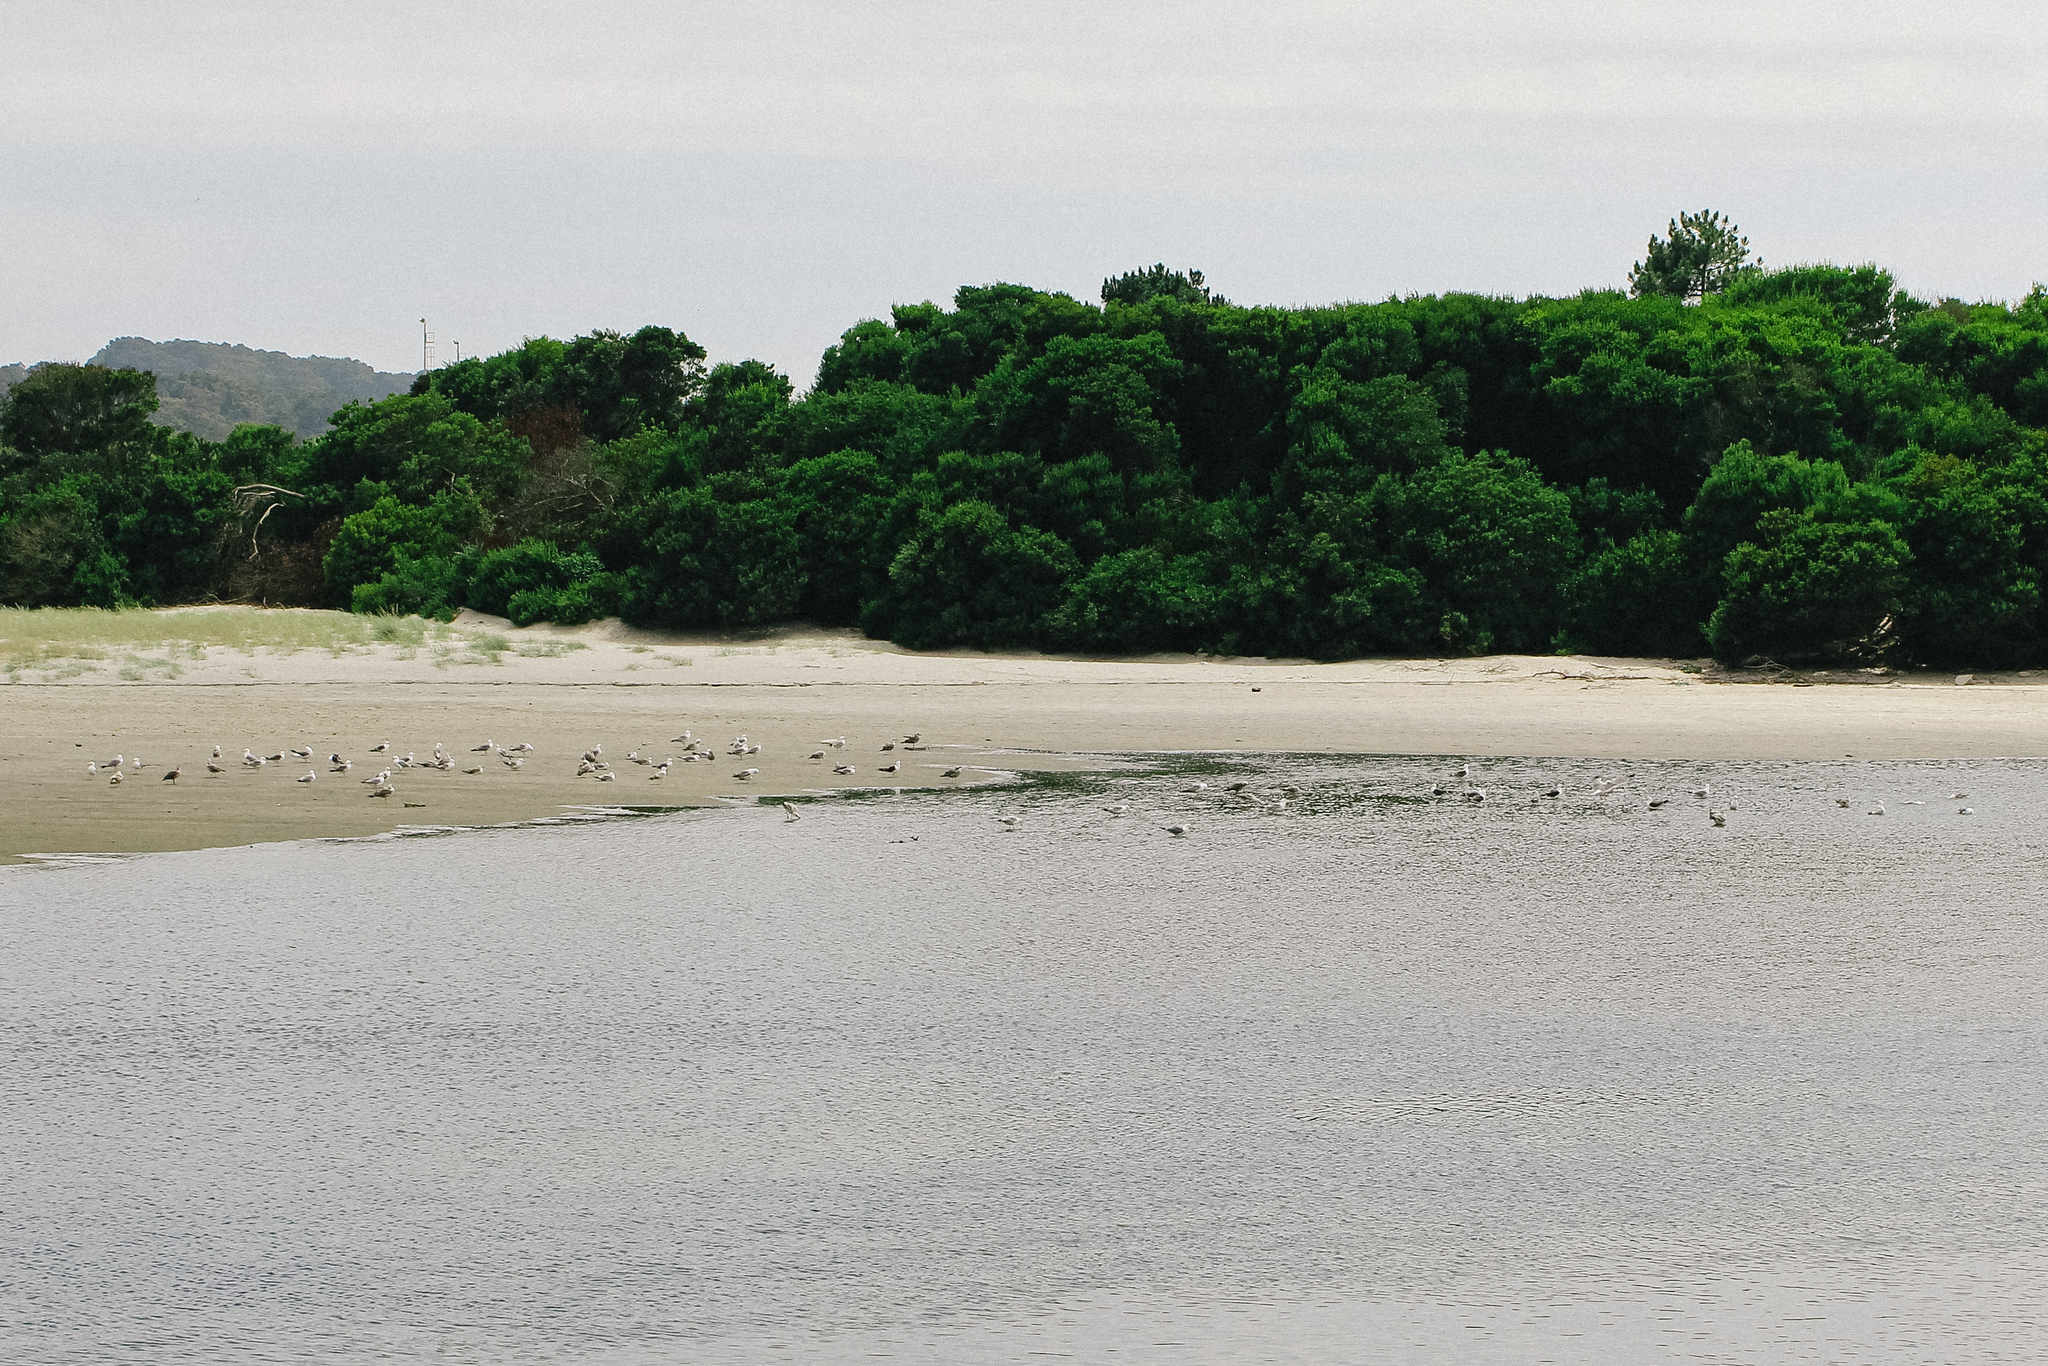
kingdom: Animalia
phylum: Chordata
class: Aves
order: Charadriiformes
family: Laridae
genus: Larus
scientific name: Larus
